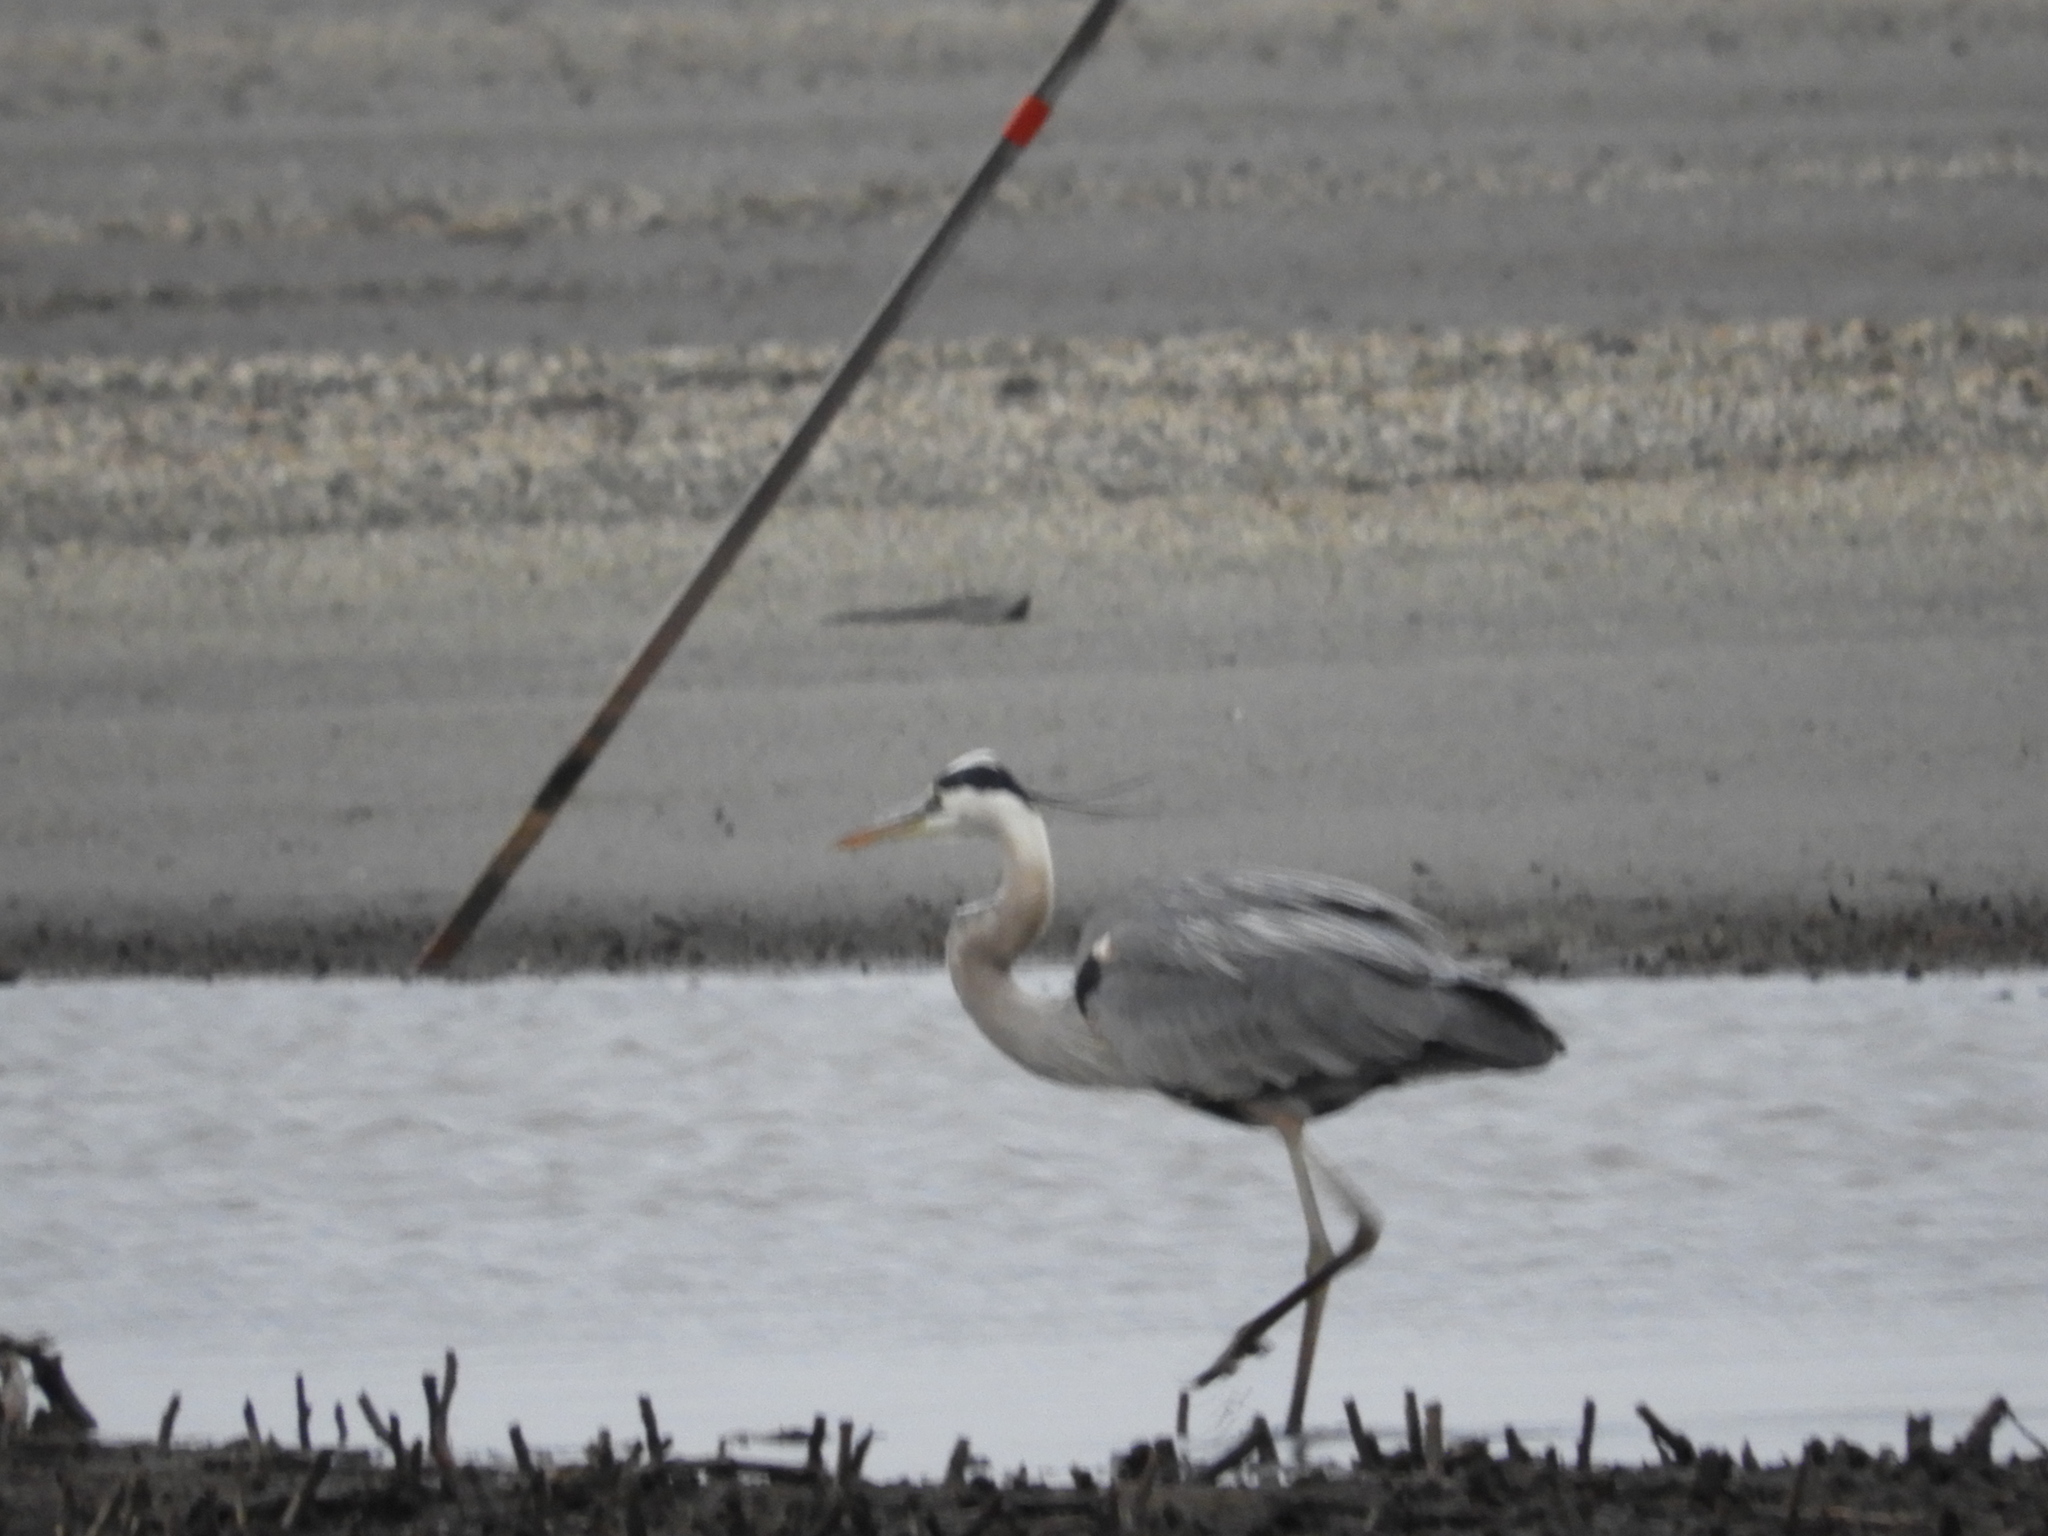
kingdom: Animalia
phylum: Chordata
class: Aves
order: Pelecaniformes
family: Ardeidae
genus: Ardea
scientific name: Ardea herodias
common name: Great blue heron
